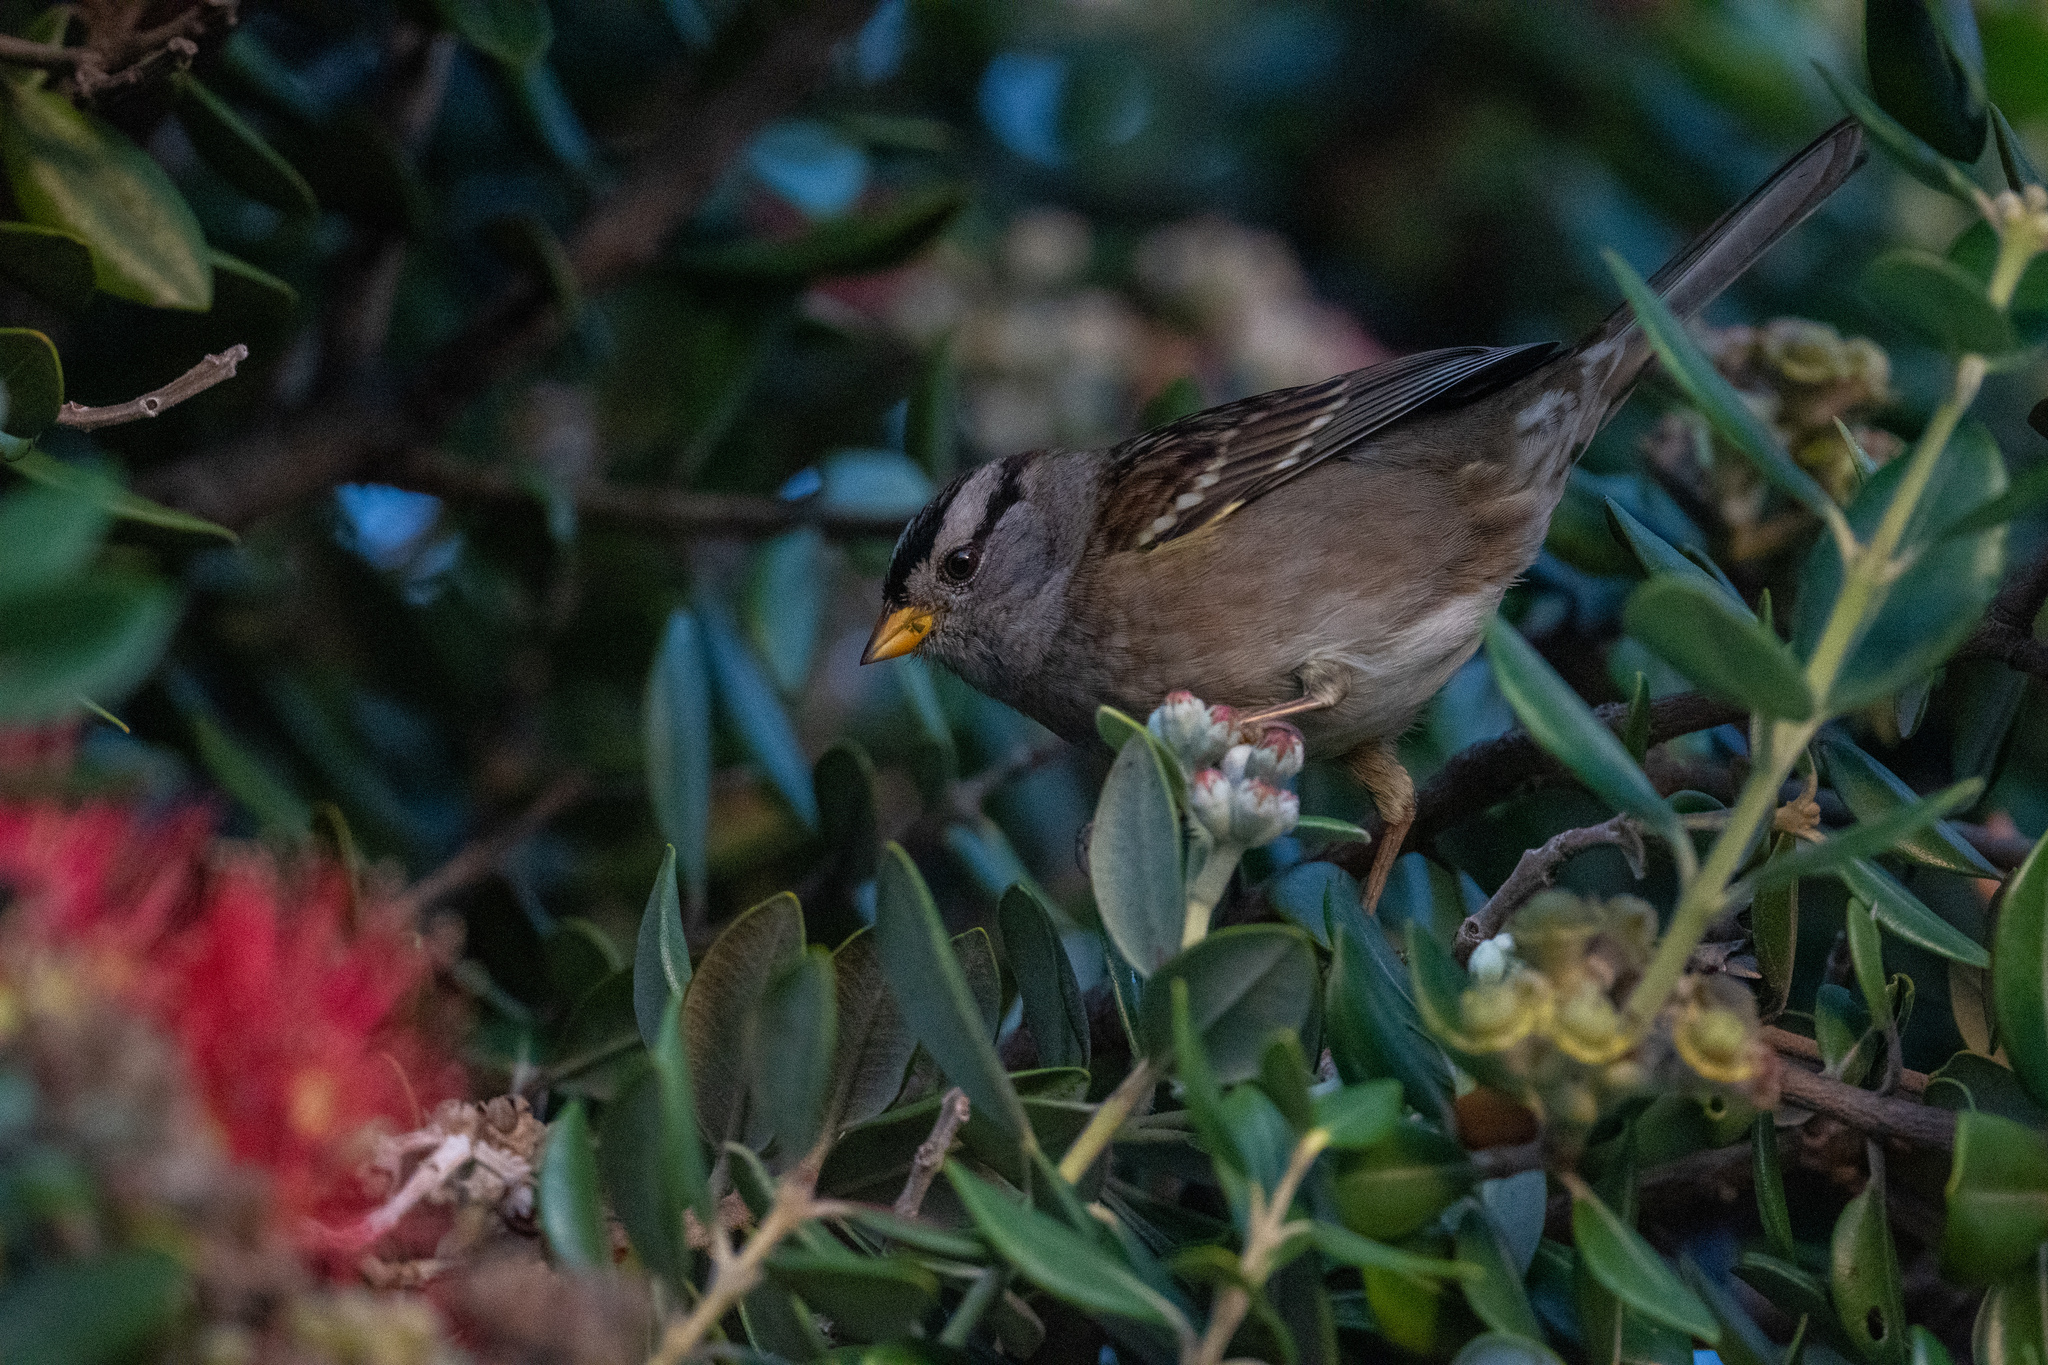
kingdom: Animalia
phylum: Chordata
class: Aves
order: Passeriformes
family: Passerellidae
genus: Zonotrichia
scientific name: Zonotrichia leucophrys
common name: White-crowned sparrow
